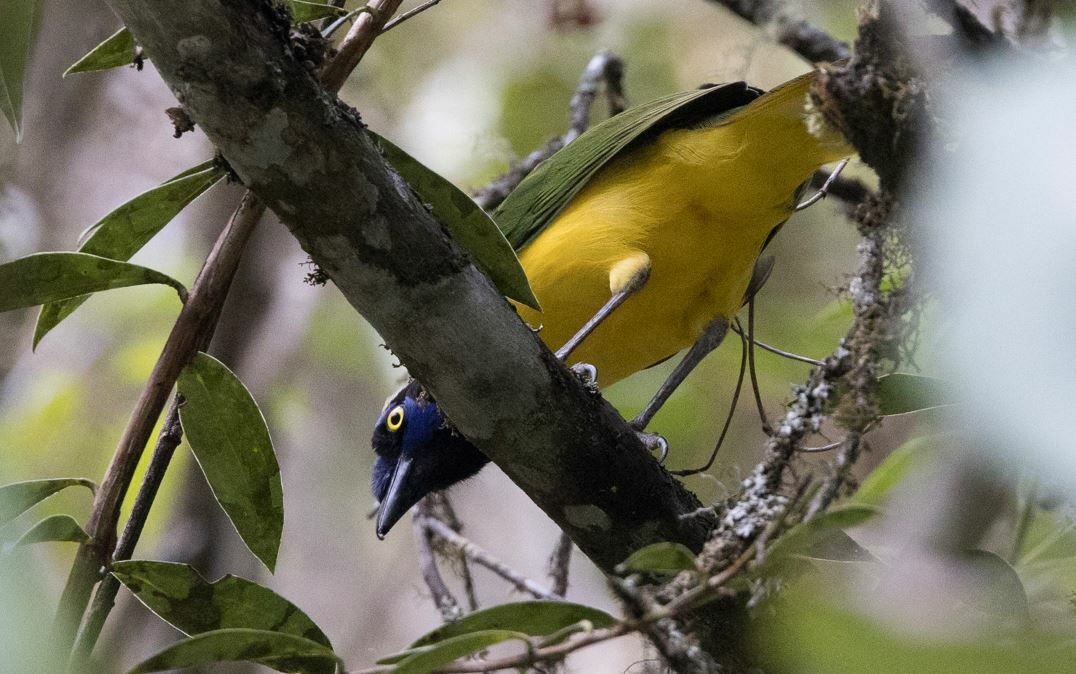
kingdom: Animalia
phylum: Chordata
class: Aves
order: Passeriformes
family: Corvidae
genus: Cyanocorax
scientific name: Cyanocorax yncas
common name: Green jay
